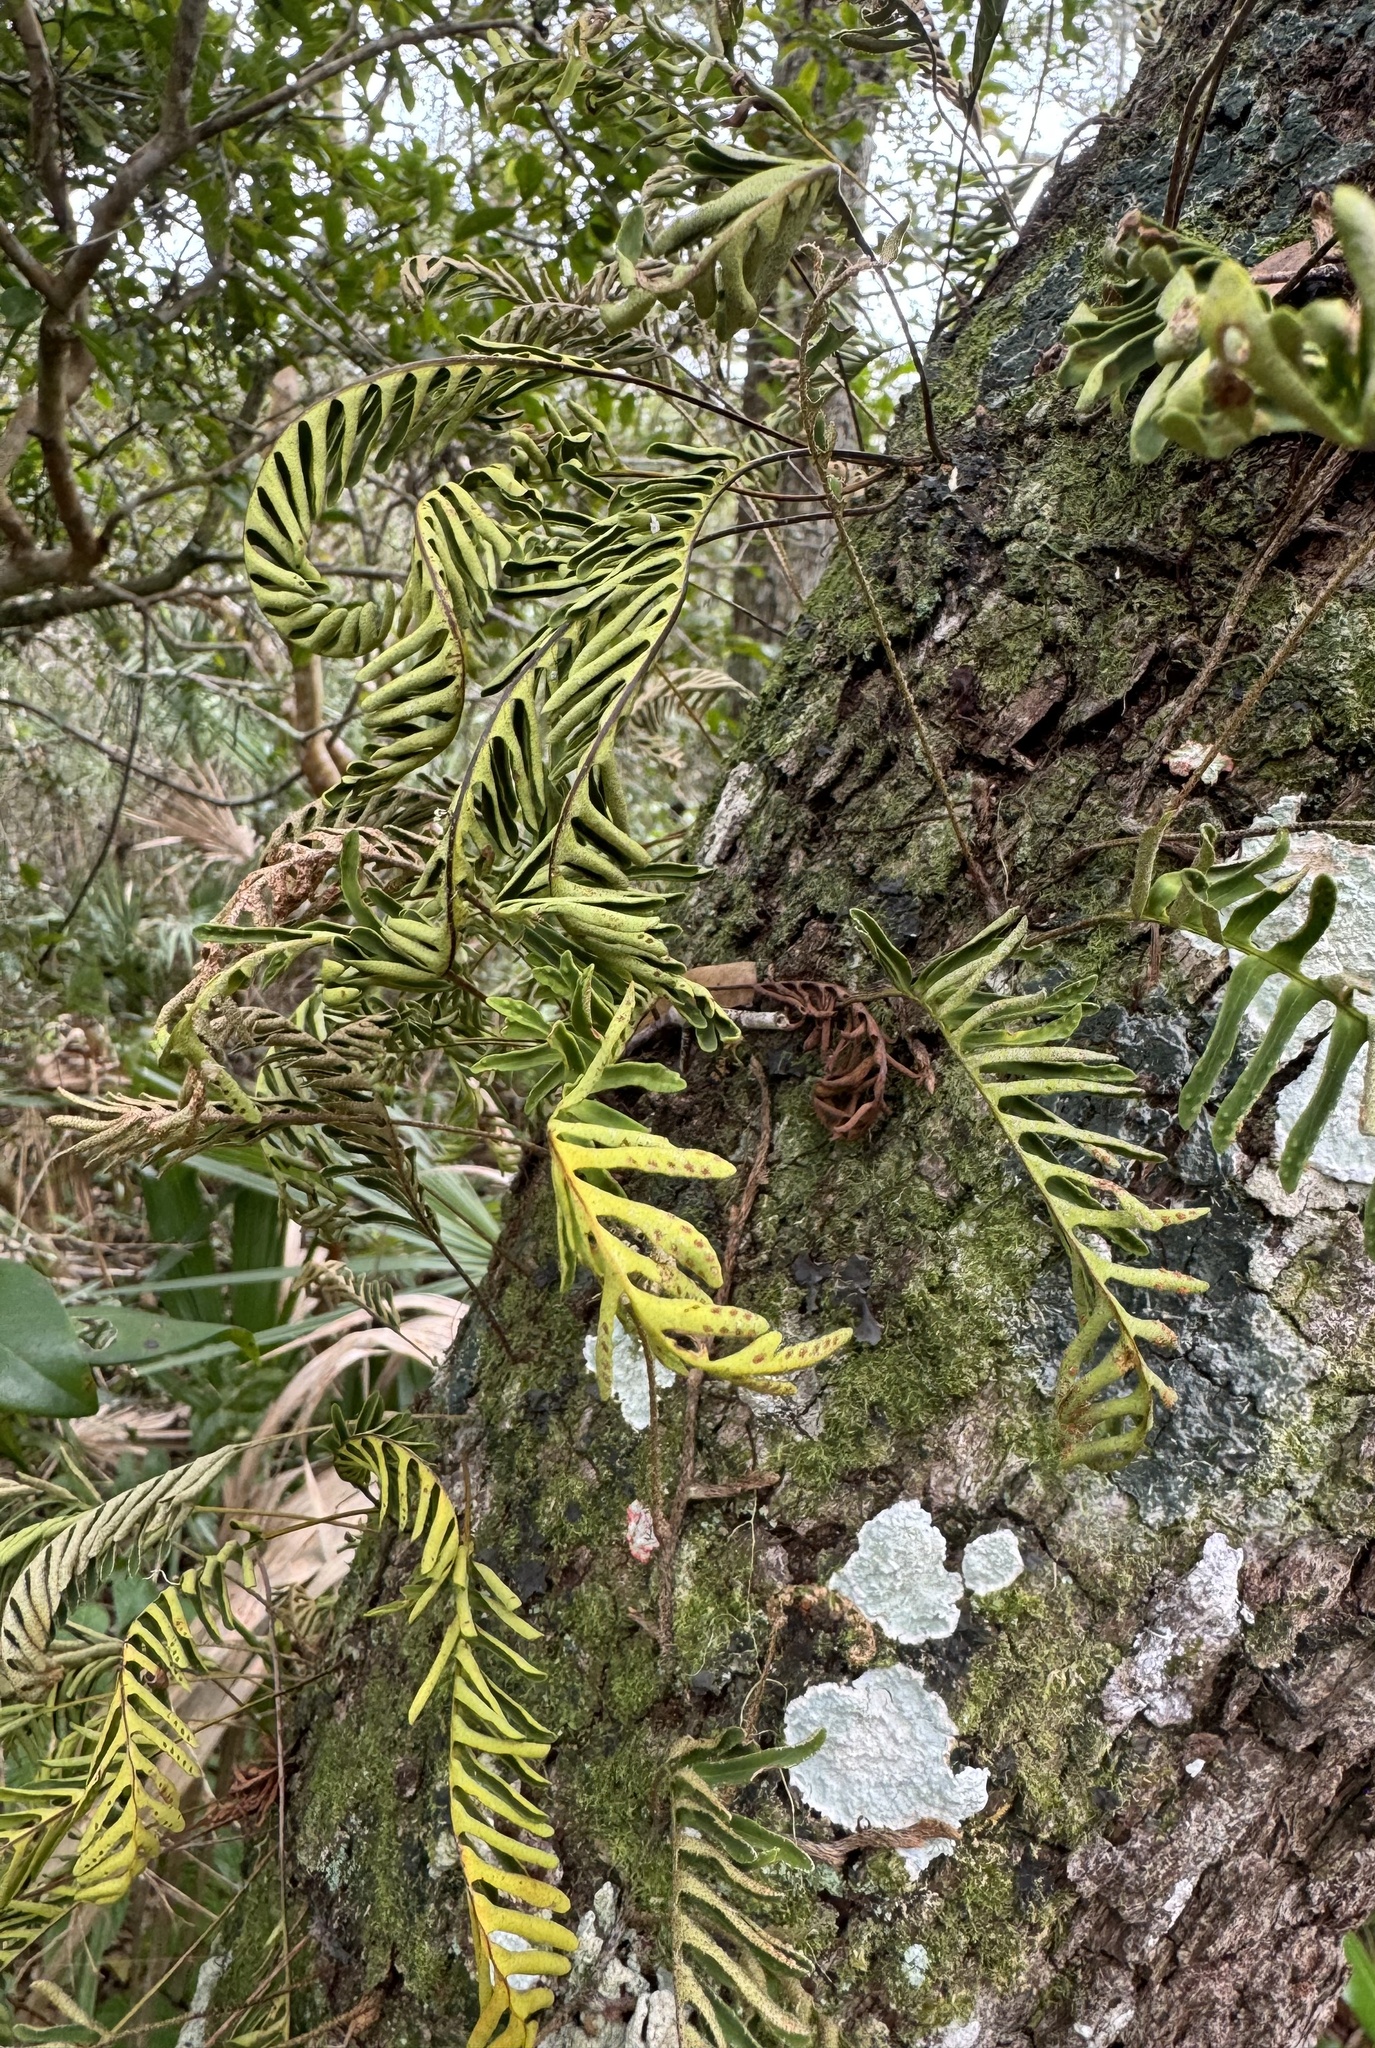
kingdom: Plantae
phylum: Tracheophyta
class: Polypodiopsida
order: Polypodiales
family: Polypodiaceae
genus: Pleopeltis
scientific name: Pleopeltis michauxiana
